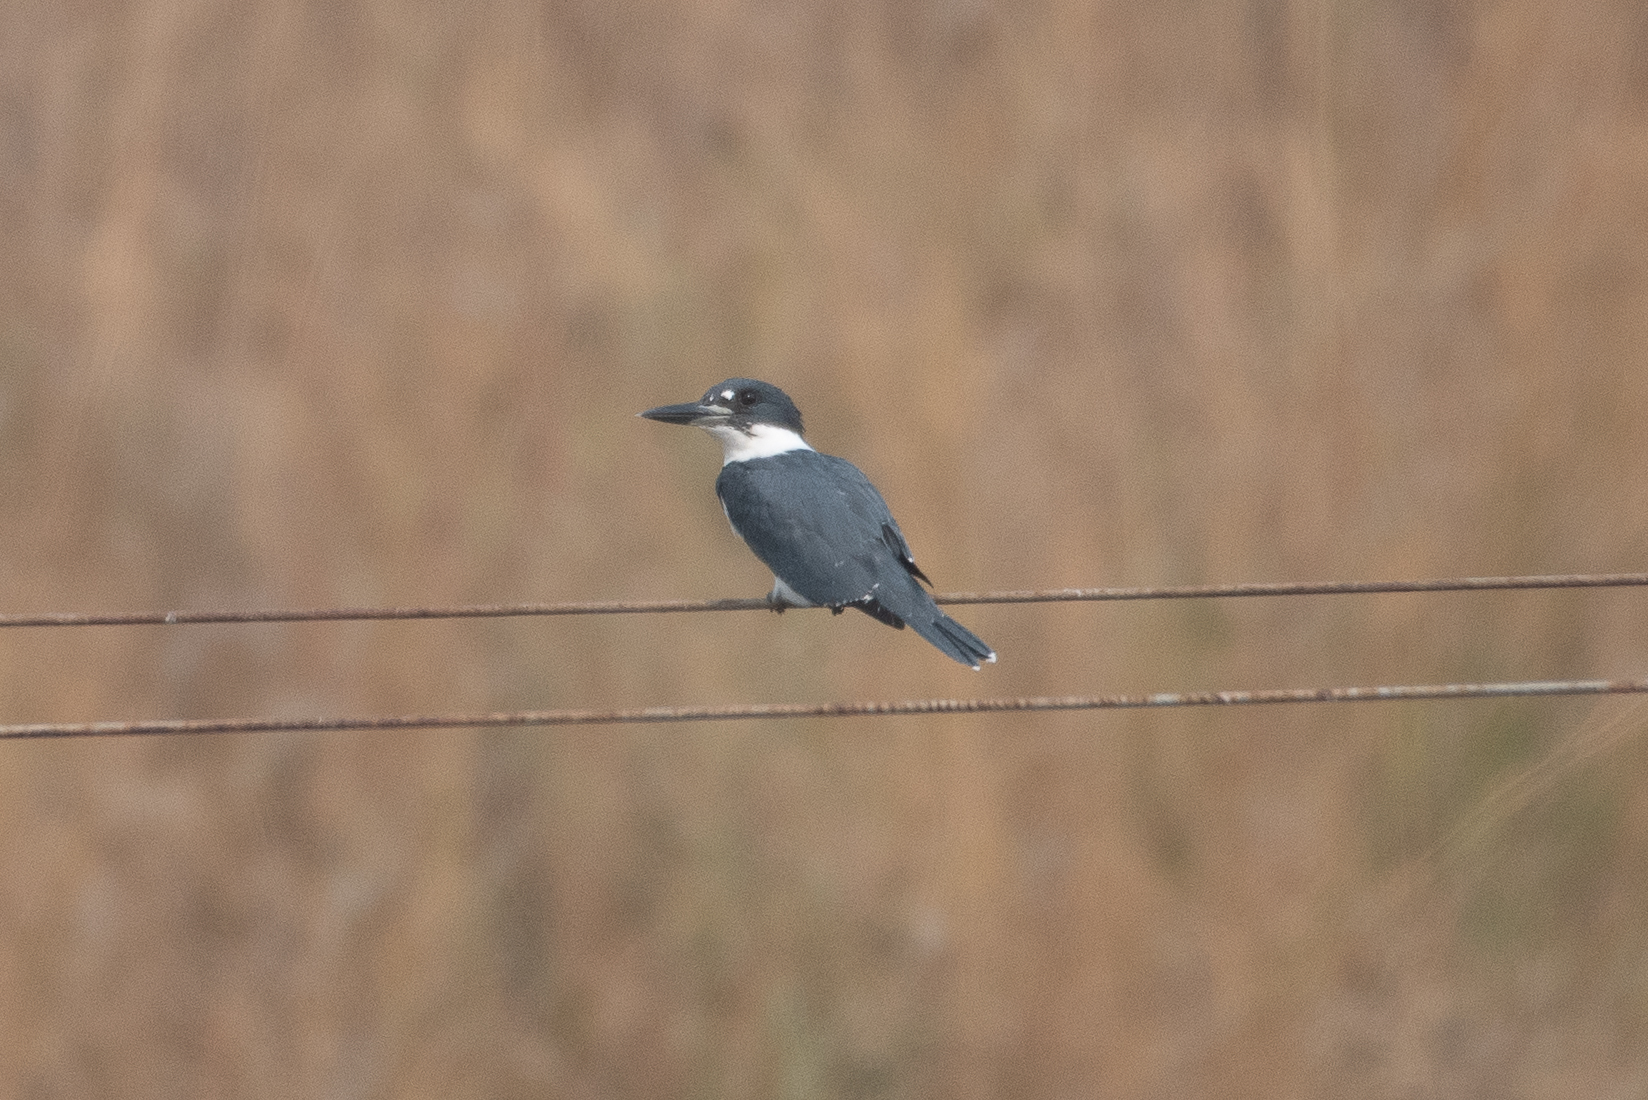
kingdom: Animalia
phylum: Chordata
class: Aves
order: Coraciiformes
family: Alcedinidae
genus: Megaceryle
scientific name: Megaceryle alcyon
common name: Belted kingfisher
